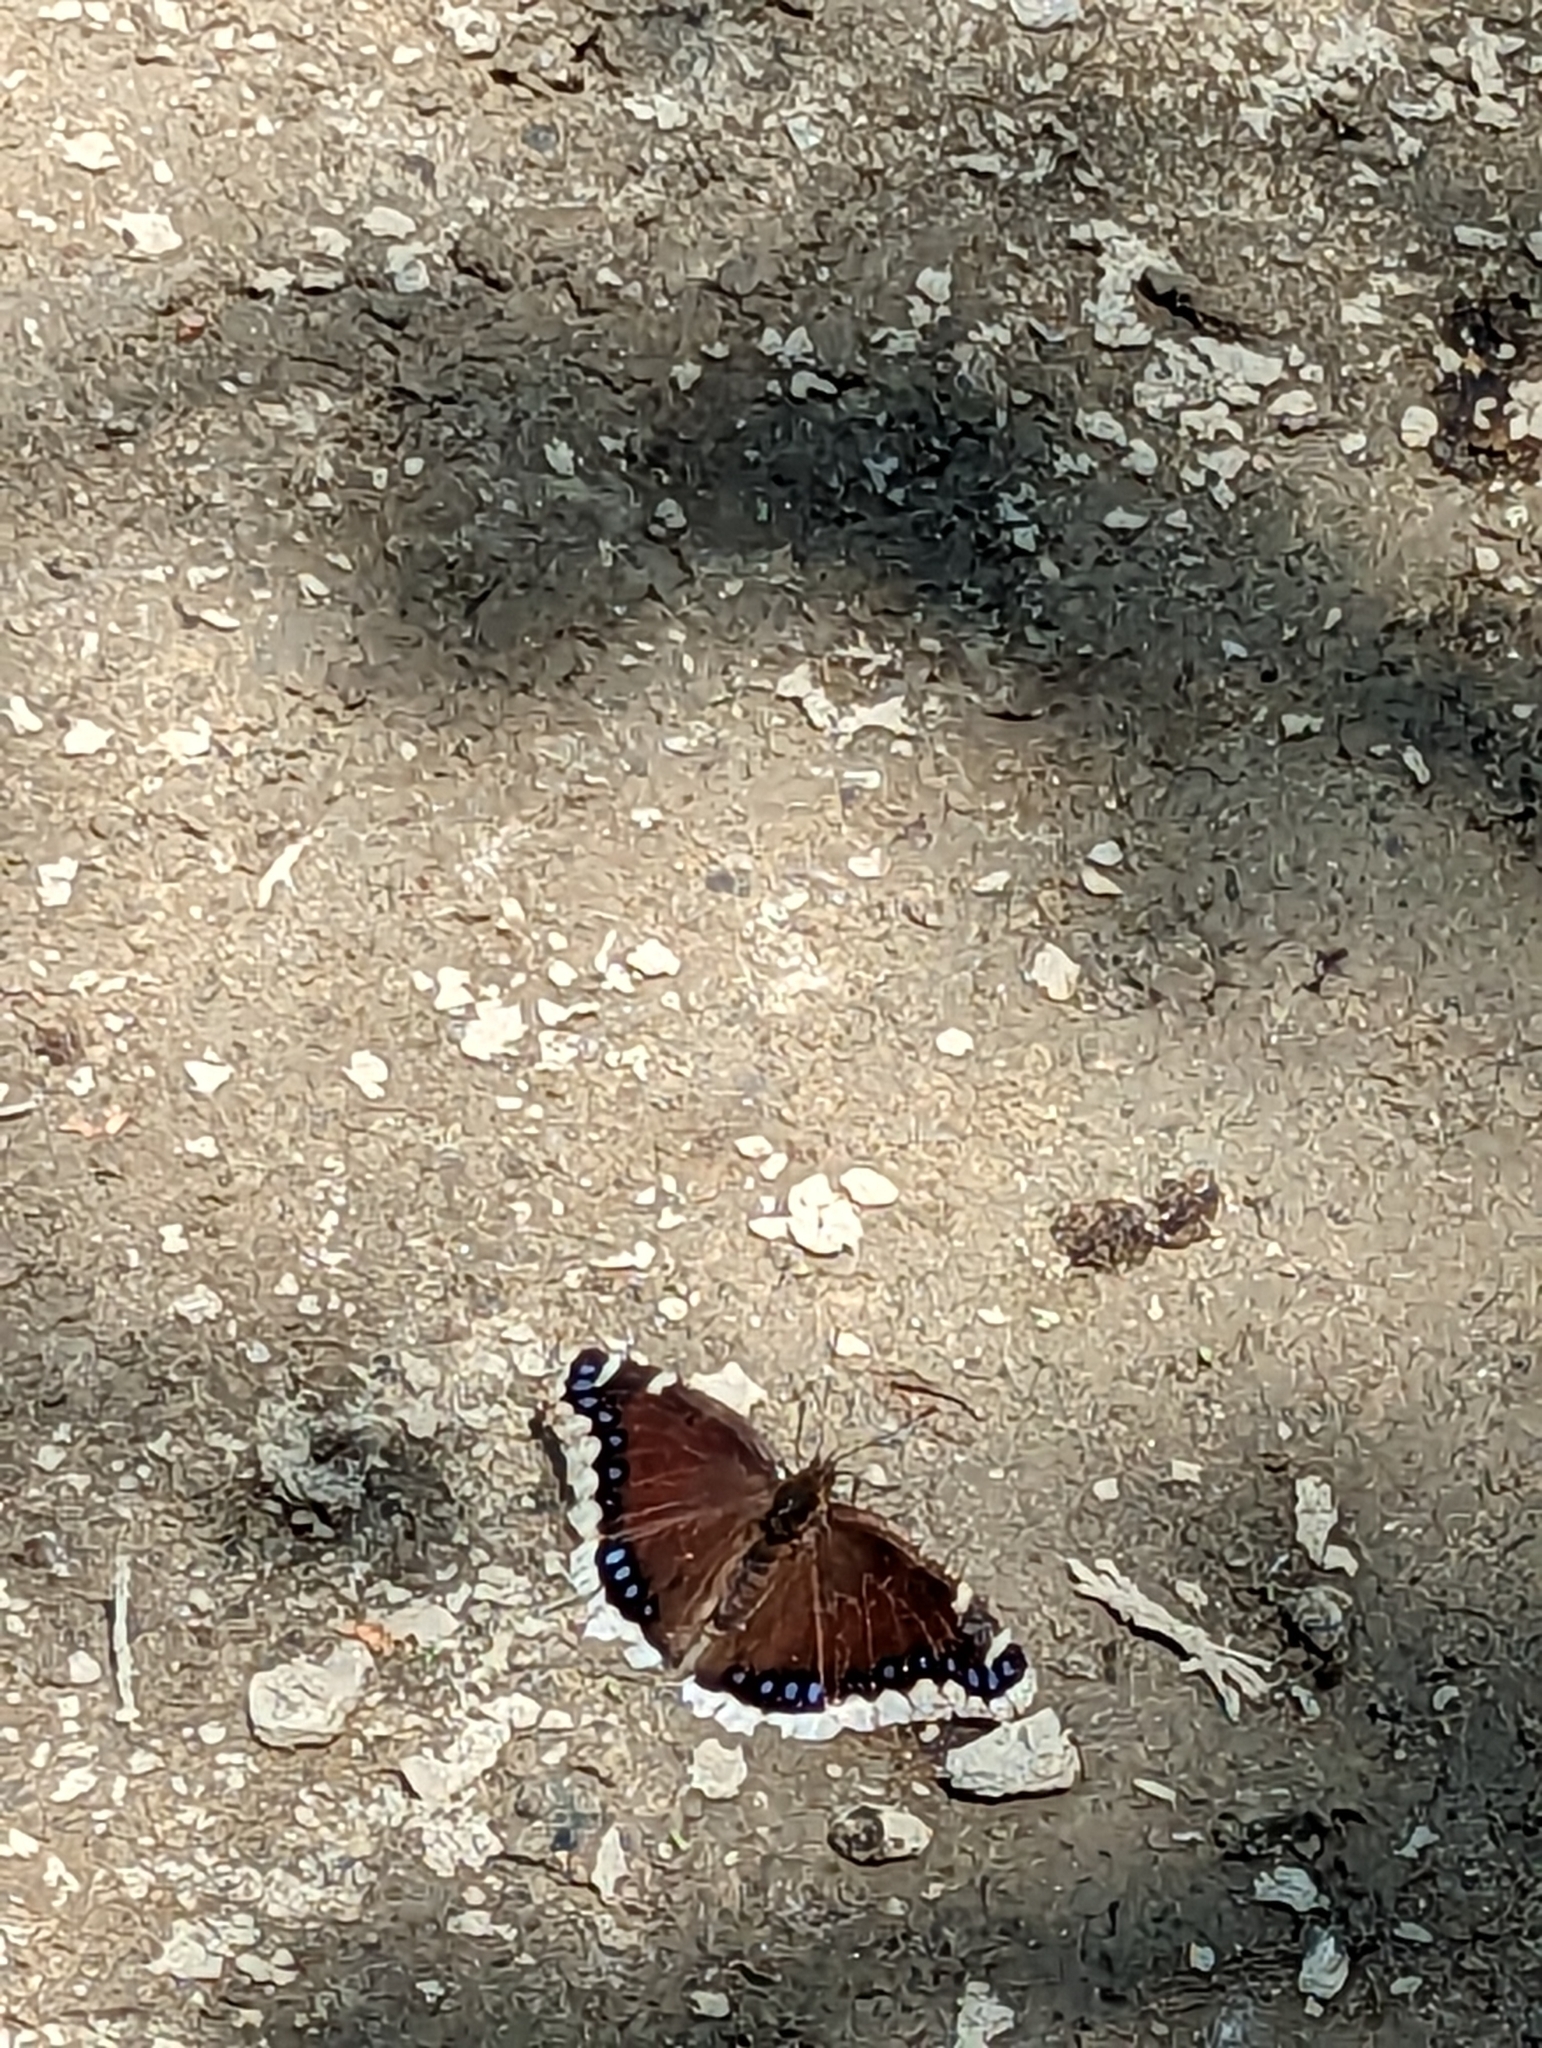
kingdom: Animalia
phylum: Arthropoda
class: Insecta
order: Lepidoptera
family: Nymphalidae
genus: Nymphalis
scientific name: Nymphalis antiopa
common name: Camberwell beauty
